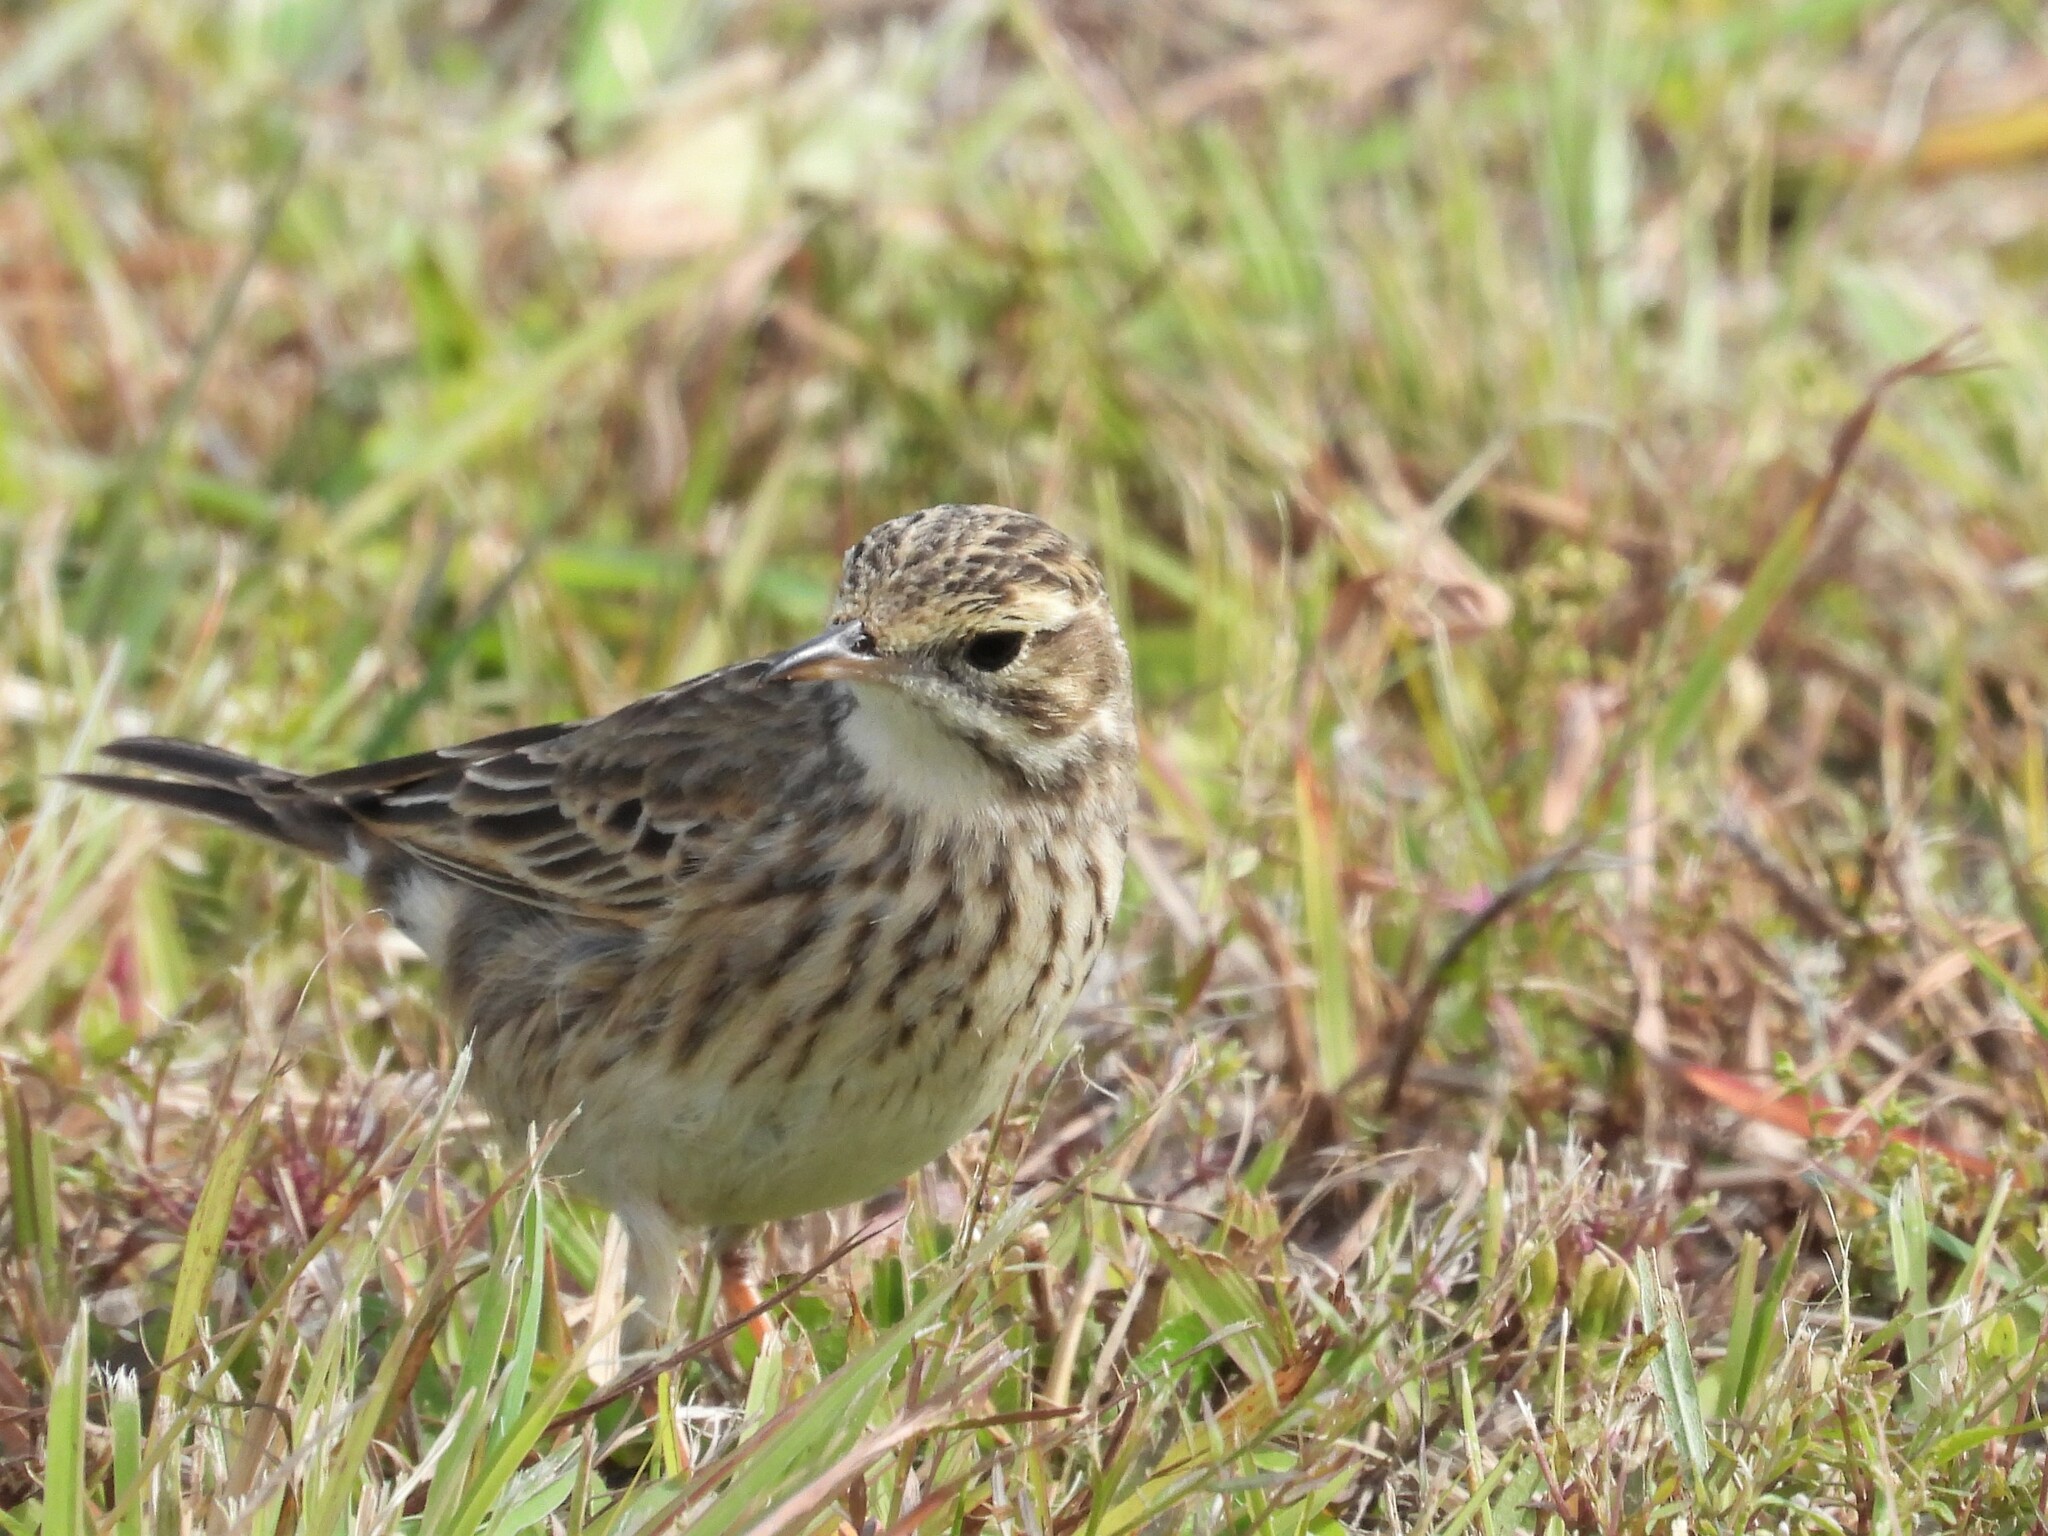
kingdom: Animalia
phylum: Chordata
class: Aves
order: Passeriformes
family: Motacillidae
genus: Anthus
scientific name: Anthus australis
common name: Australian pipit
